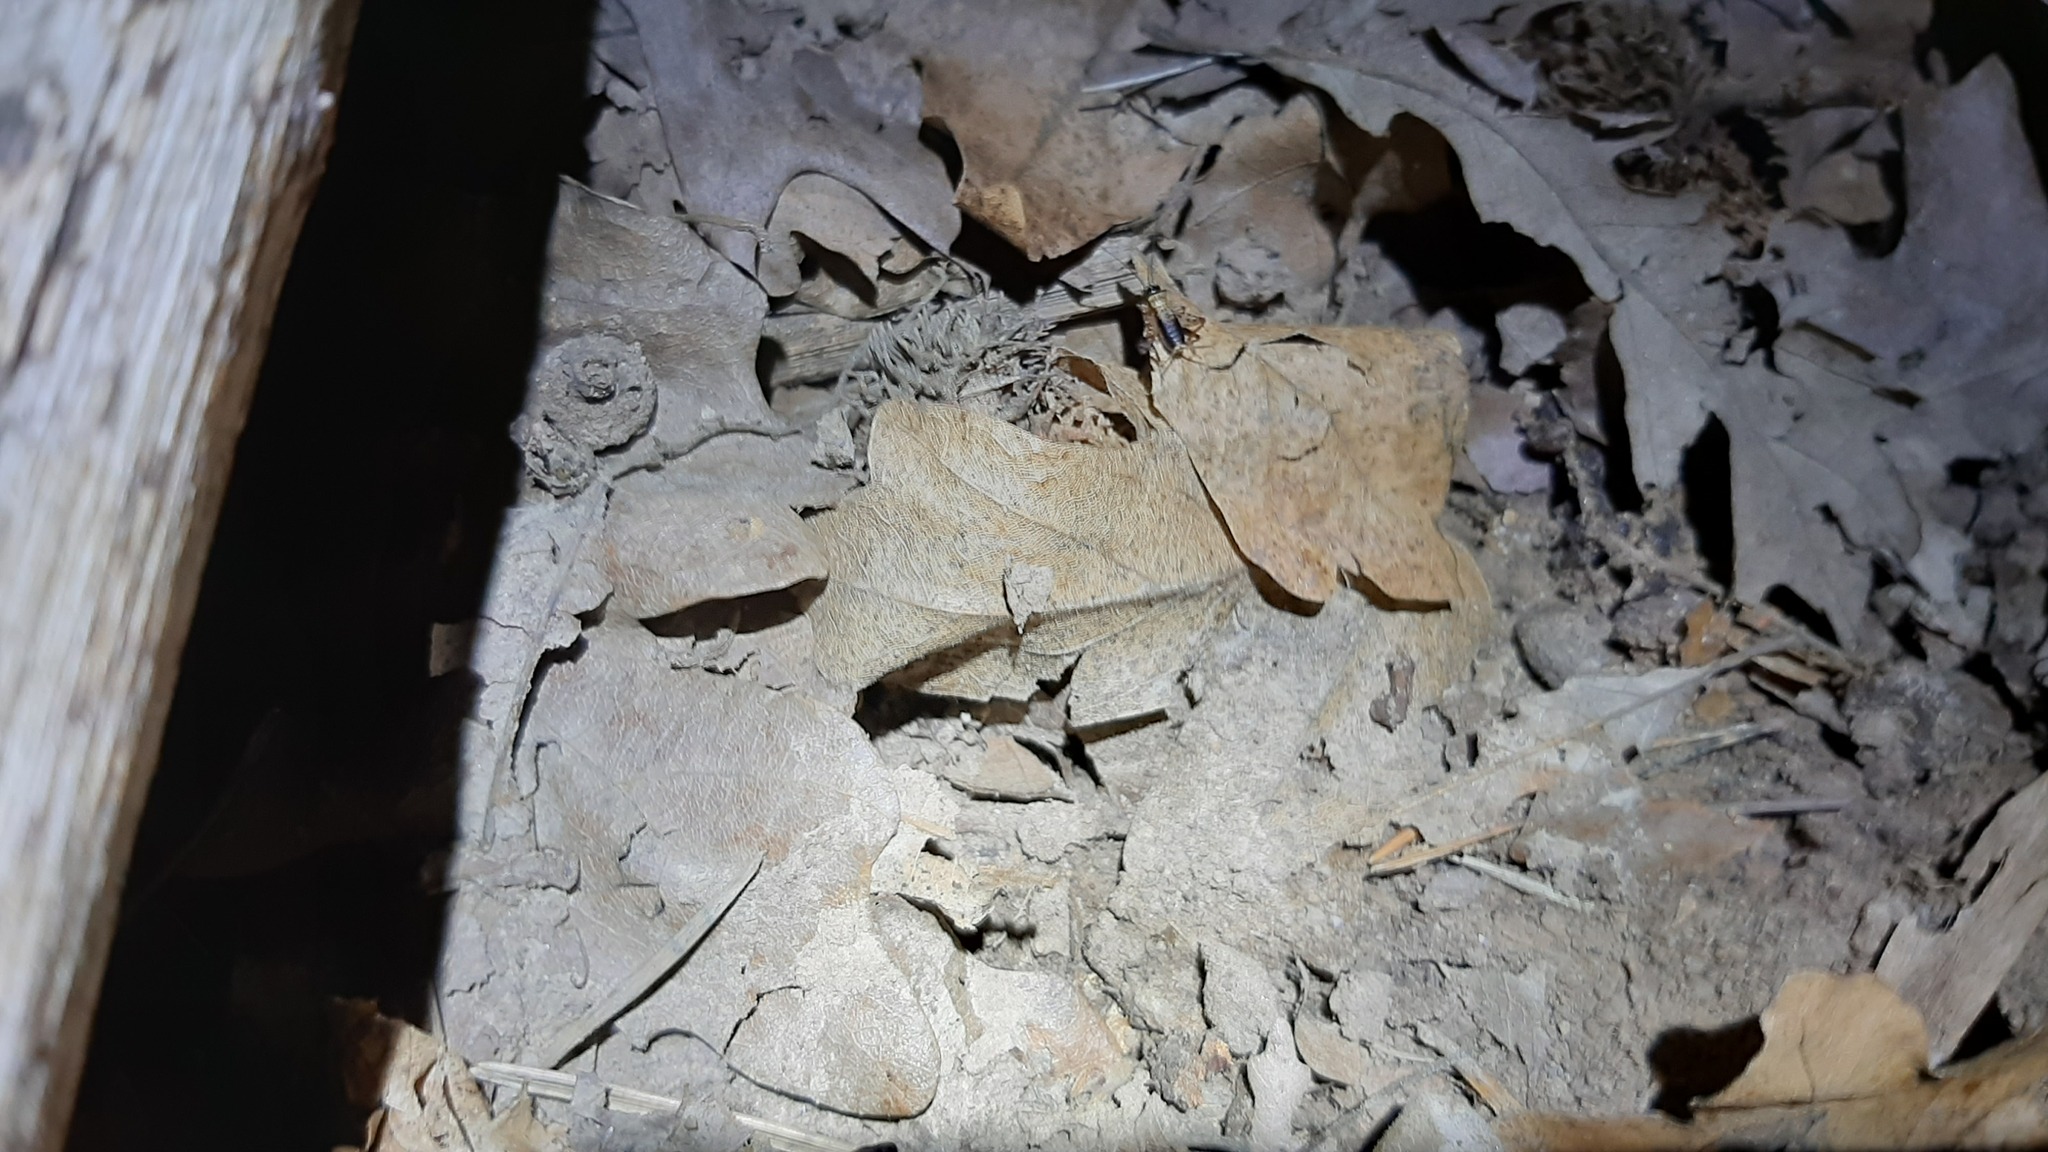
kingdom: Animalia
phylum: Arthropoda
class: Insecta
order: Orthoptera
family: Trigonidiidae
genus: Nemobius
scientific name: Nemobius sylvestris
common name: Wood-cricket
